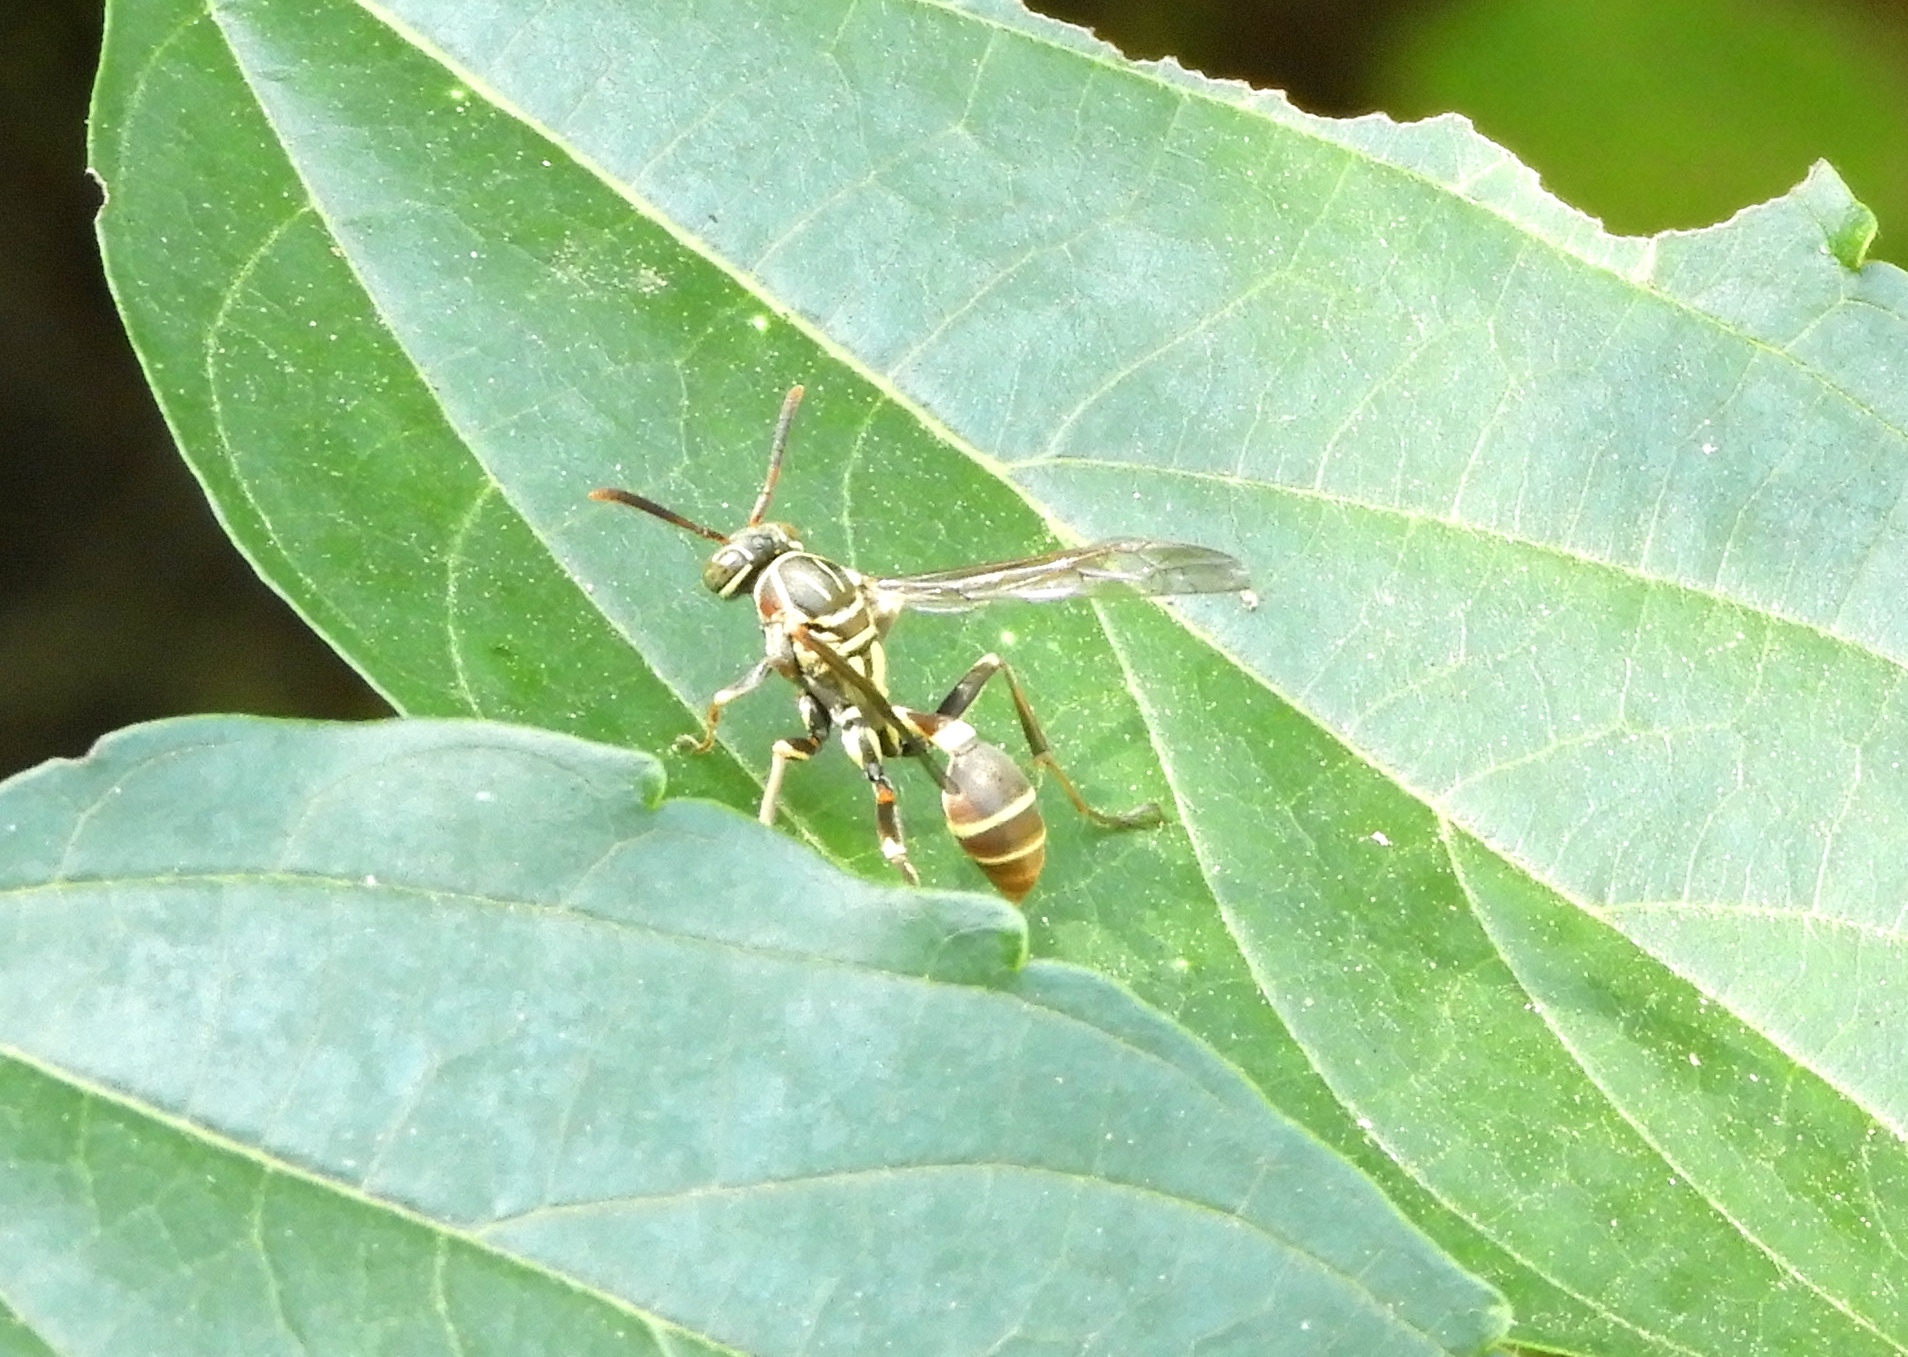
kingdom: Animalia
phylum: Arthropoda
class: Insecta
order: Hymenoptera
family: Vespidae
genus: Mischocyttarus
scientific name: Mischocyttarus mexicanus
